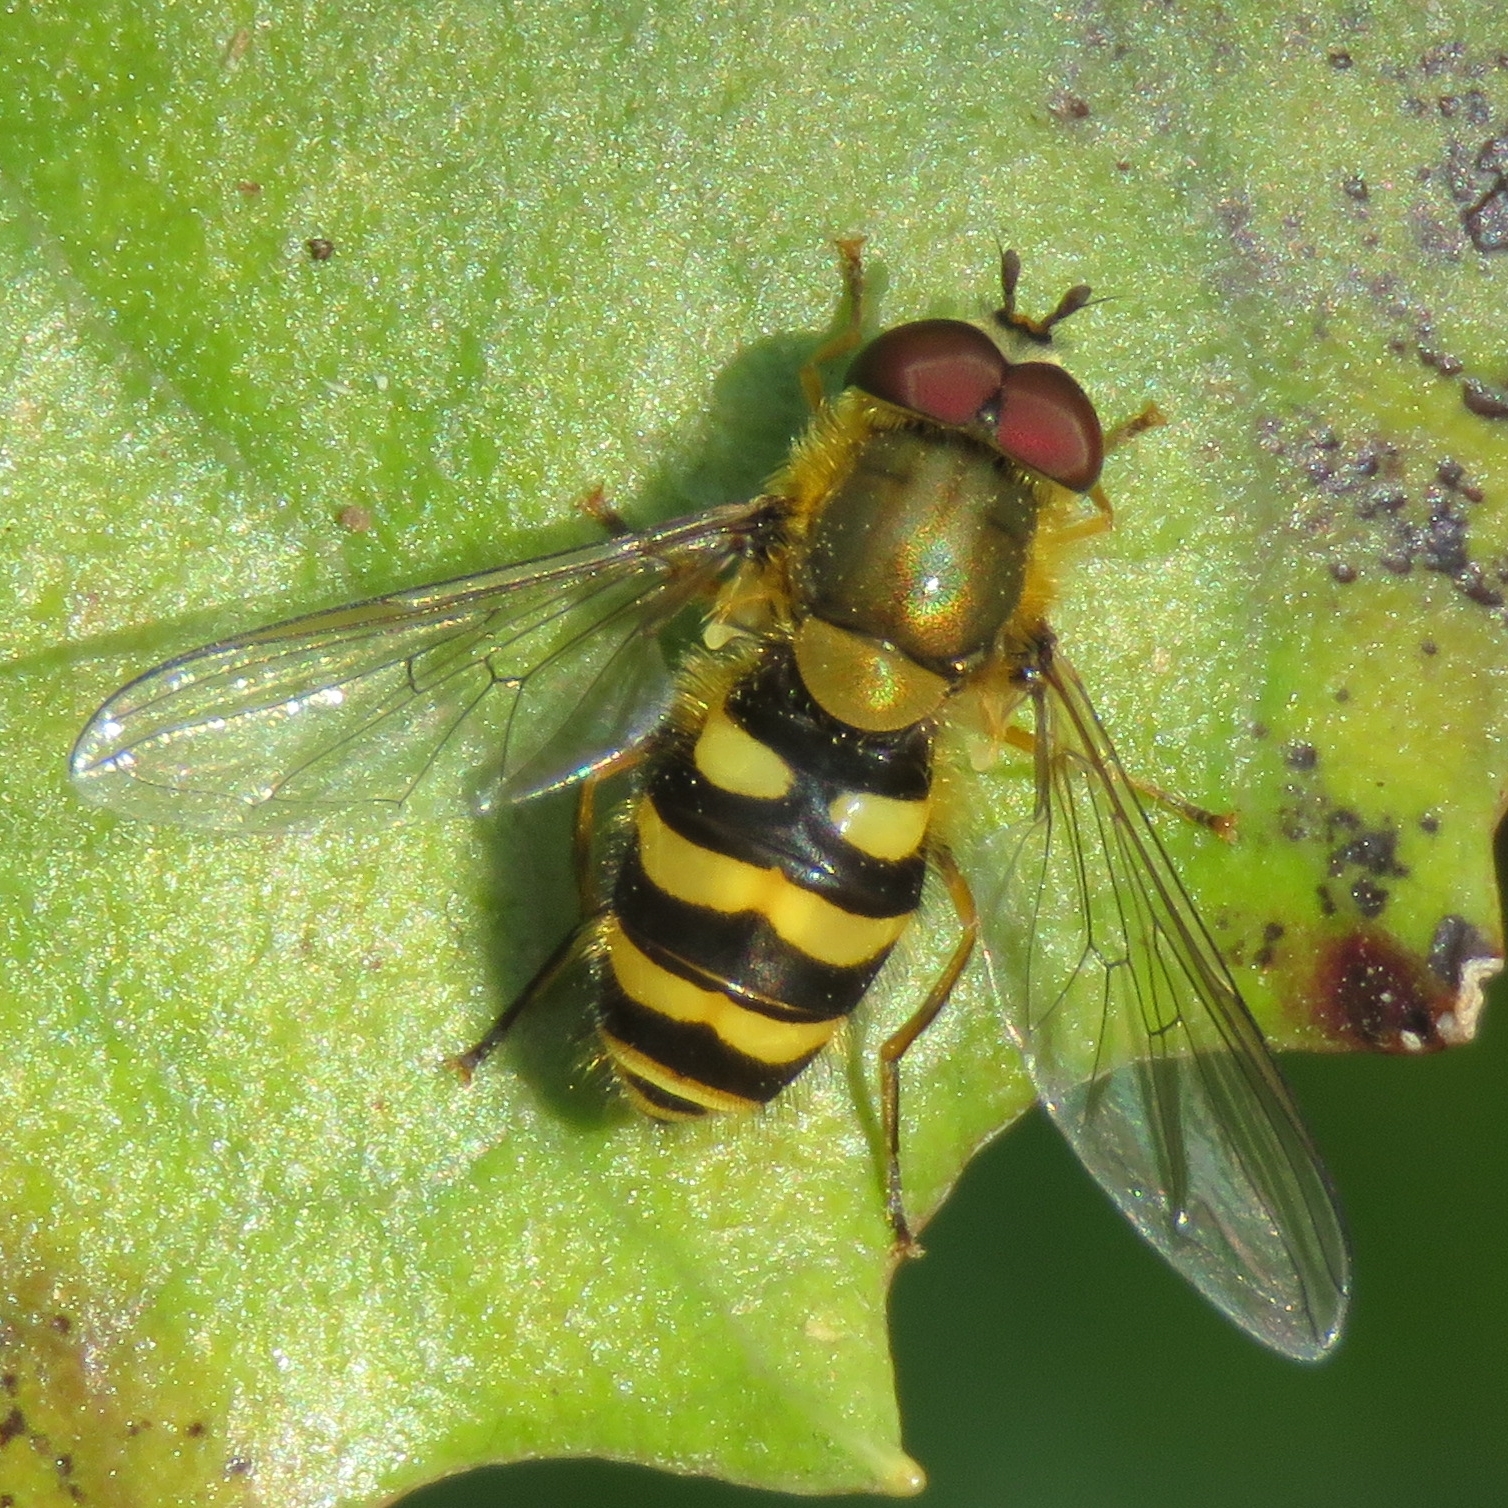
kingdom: Animalia
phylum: Arthropoda
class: Insecta
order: Diptera
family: Syrphidae
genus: Syrphus
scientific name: Syrphus
